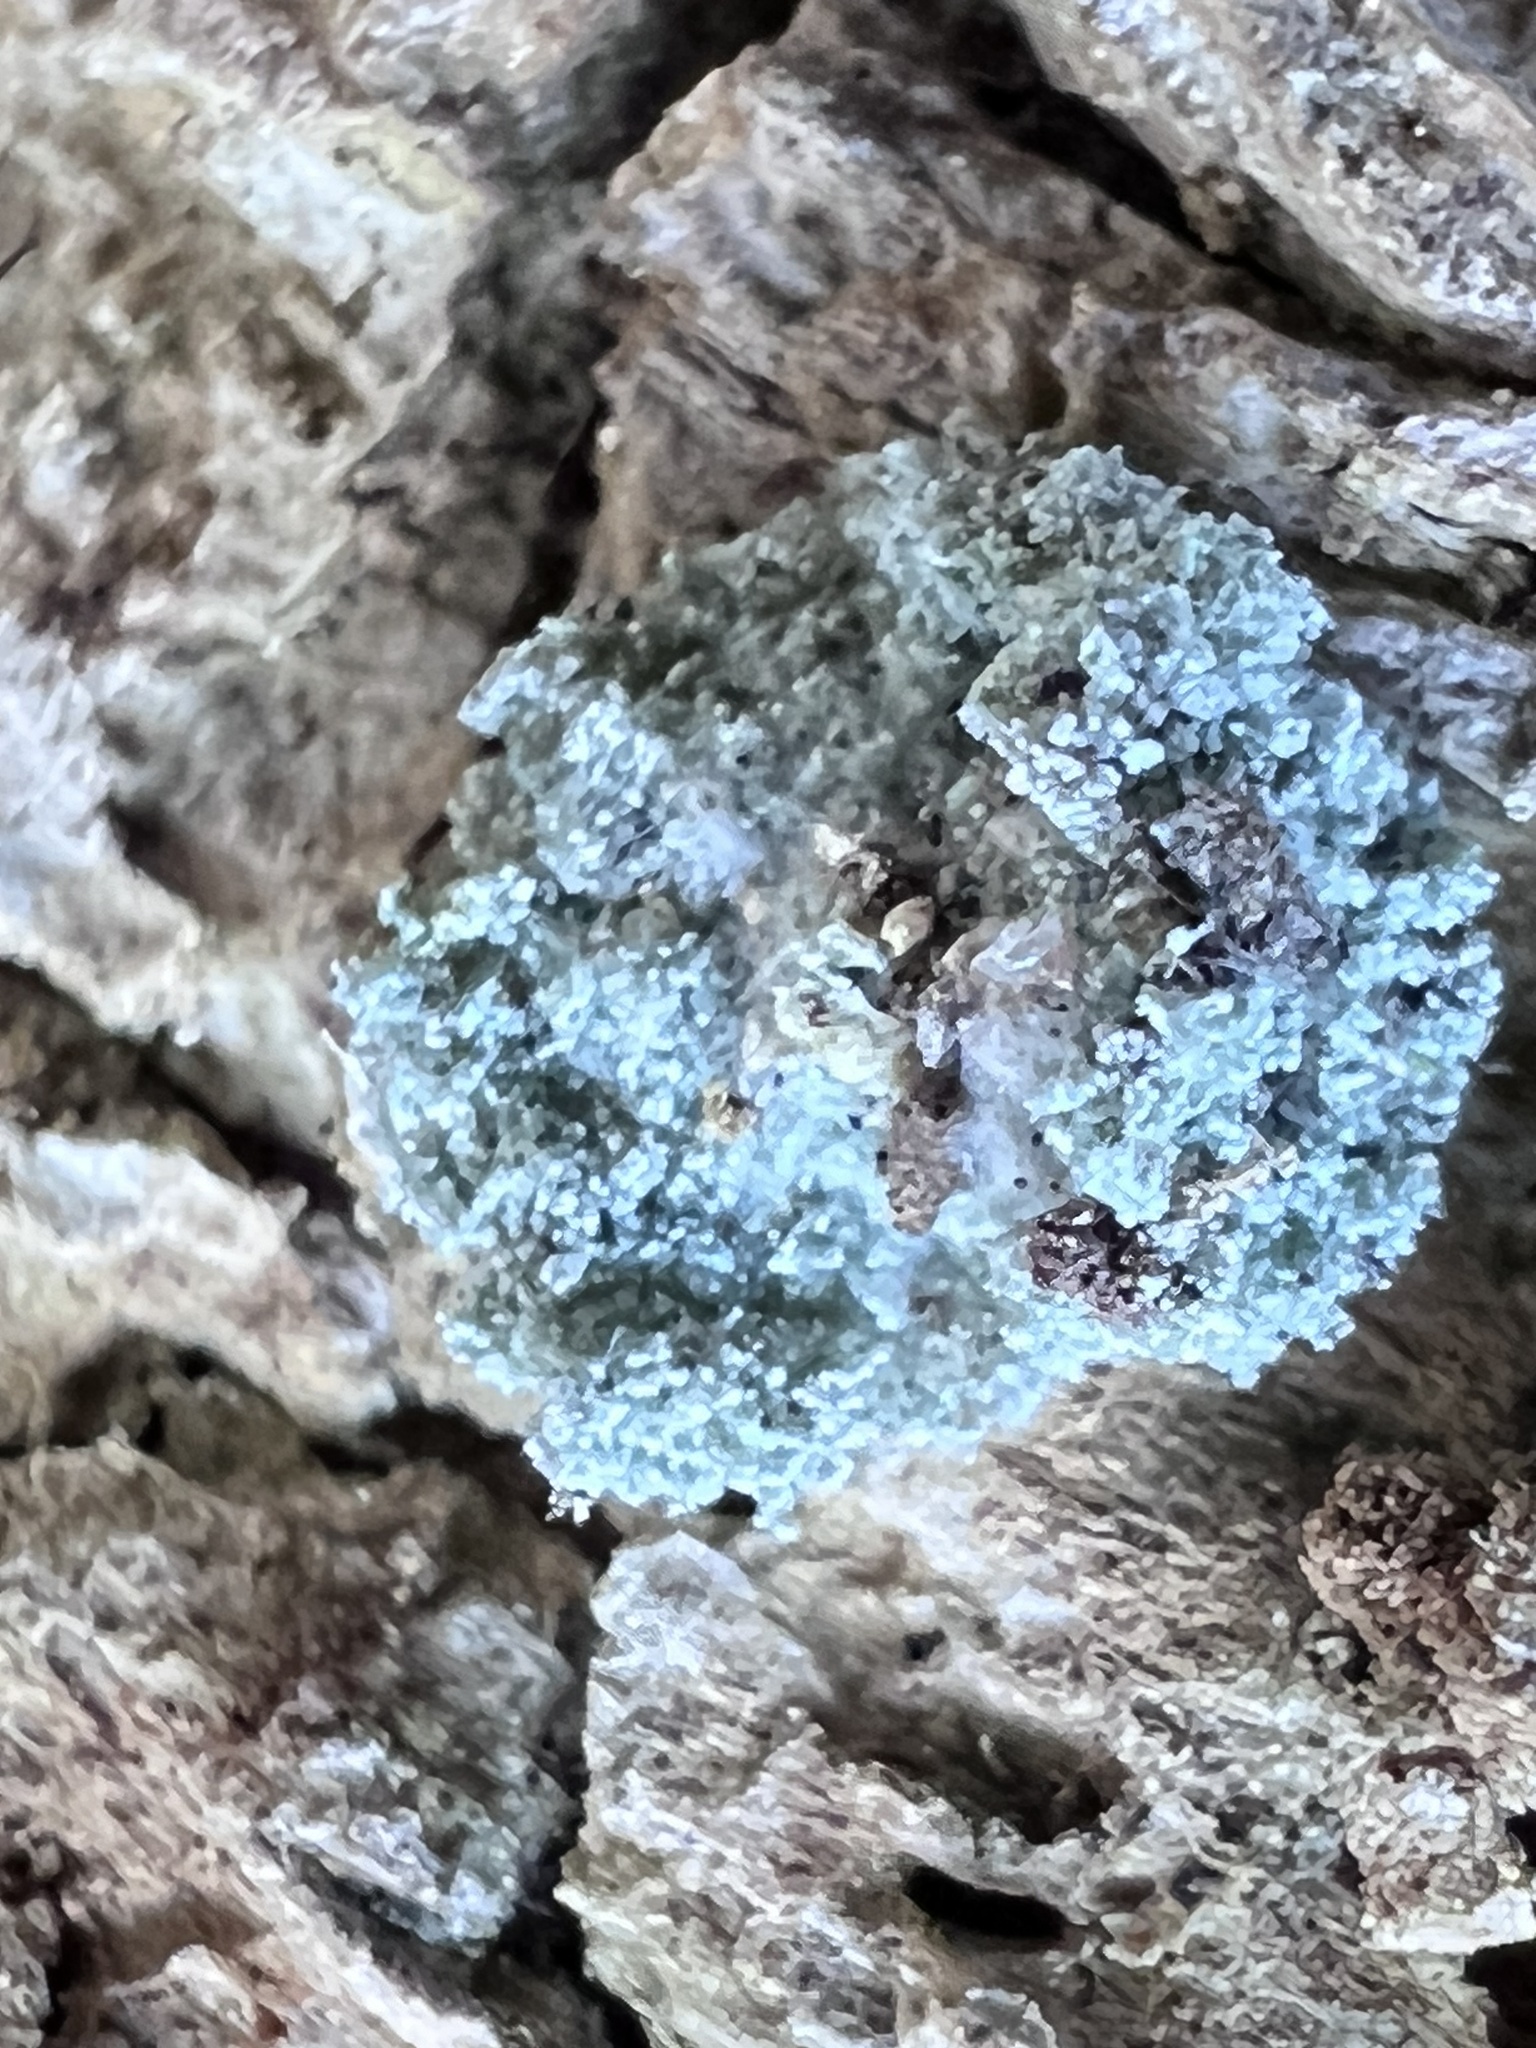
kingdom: Animalia
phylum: Arthropoda
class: Insecta
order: Neuroptera
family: Chrysopidae
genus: Leucochrysa
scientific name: Leucochrysa pavida
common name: Lichen-carrying green lacewing
